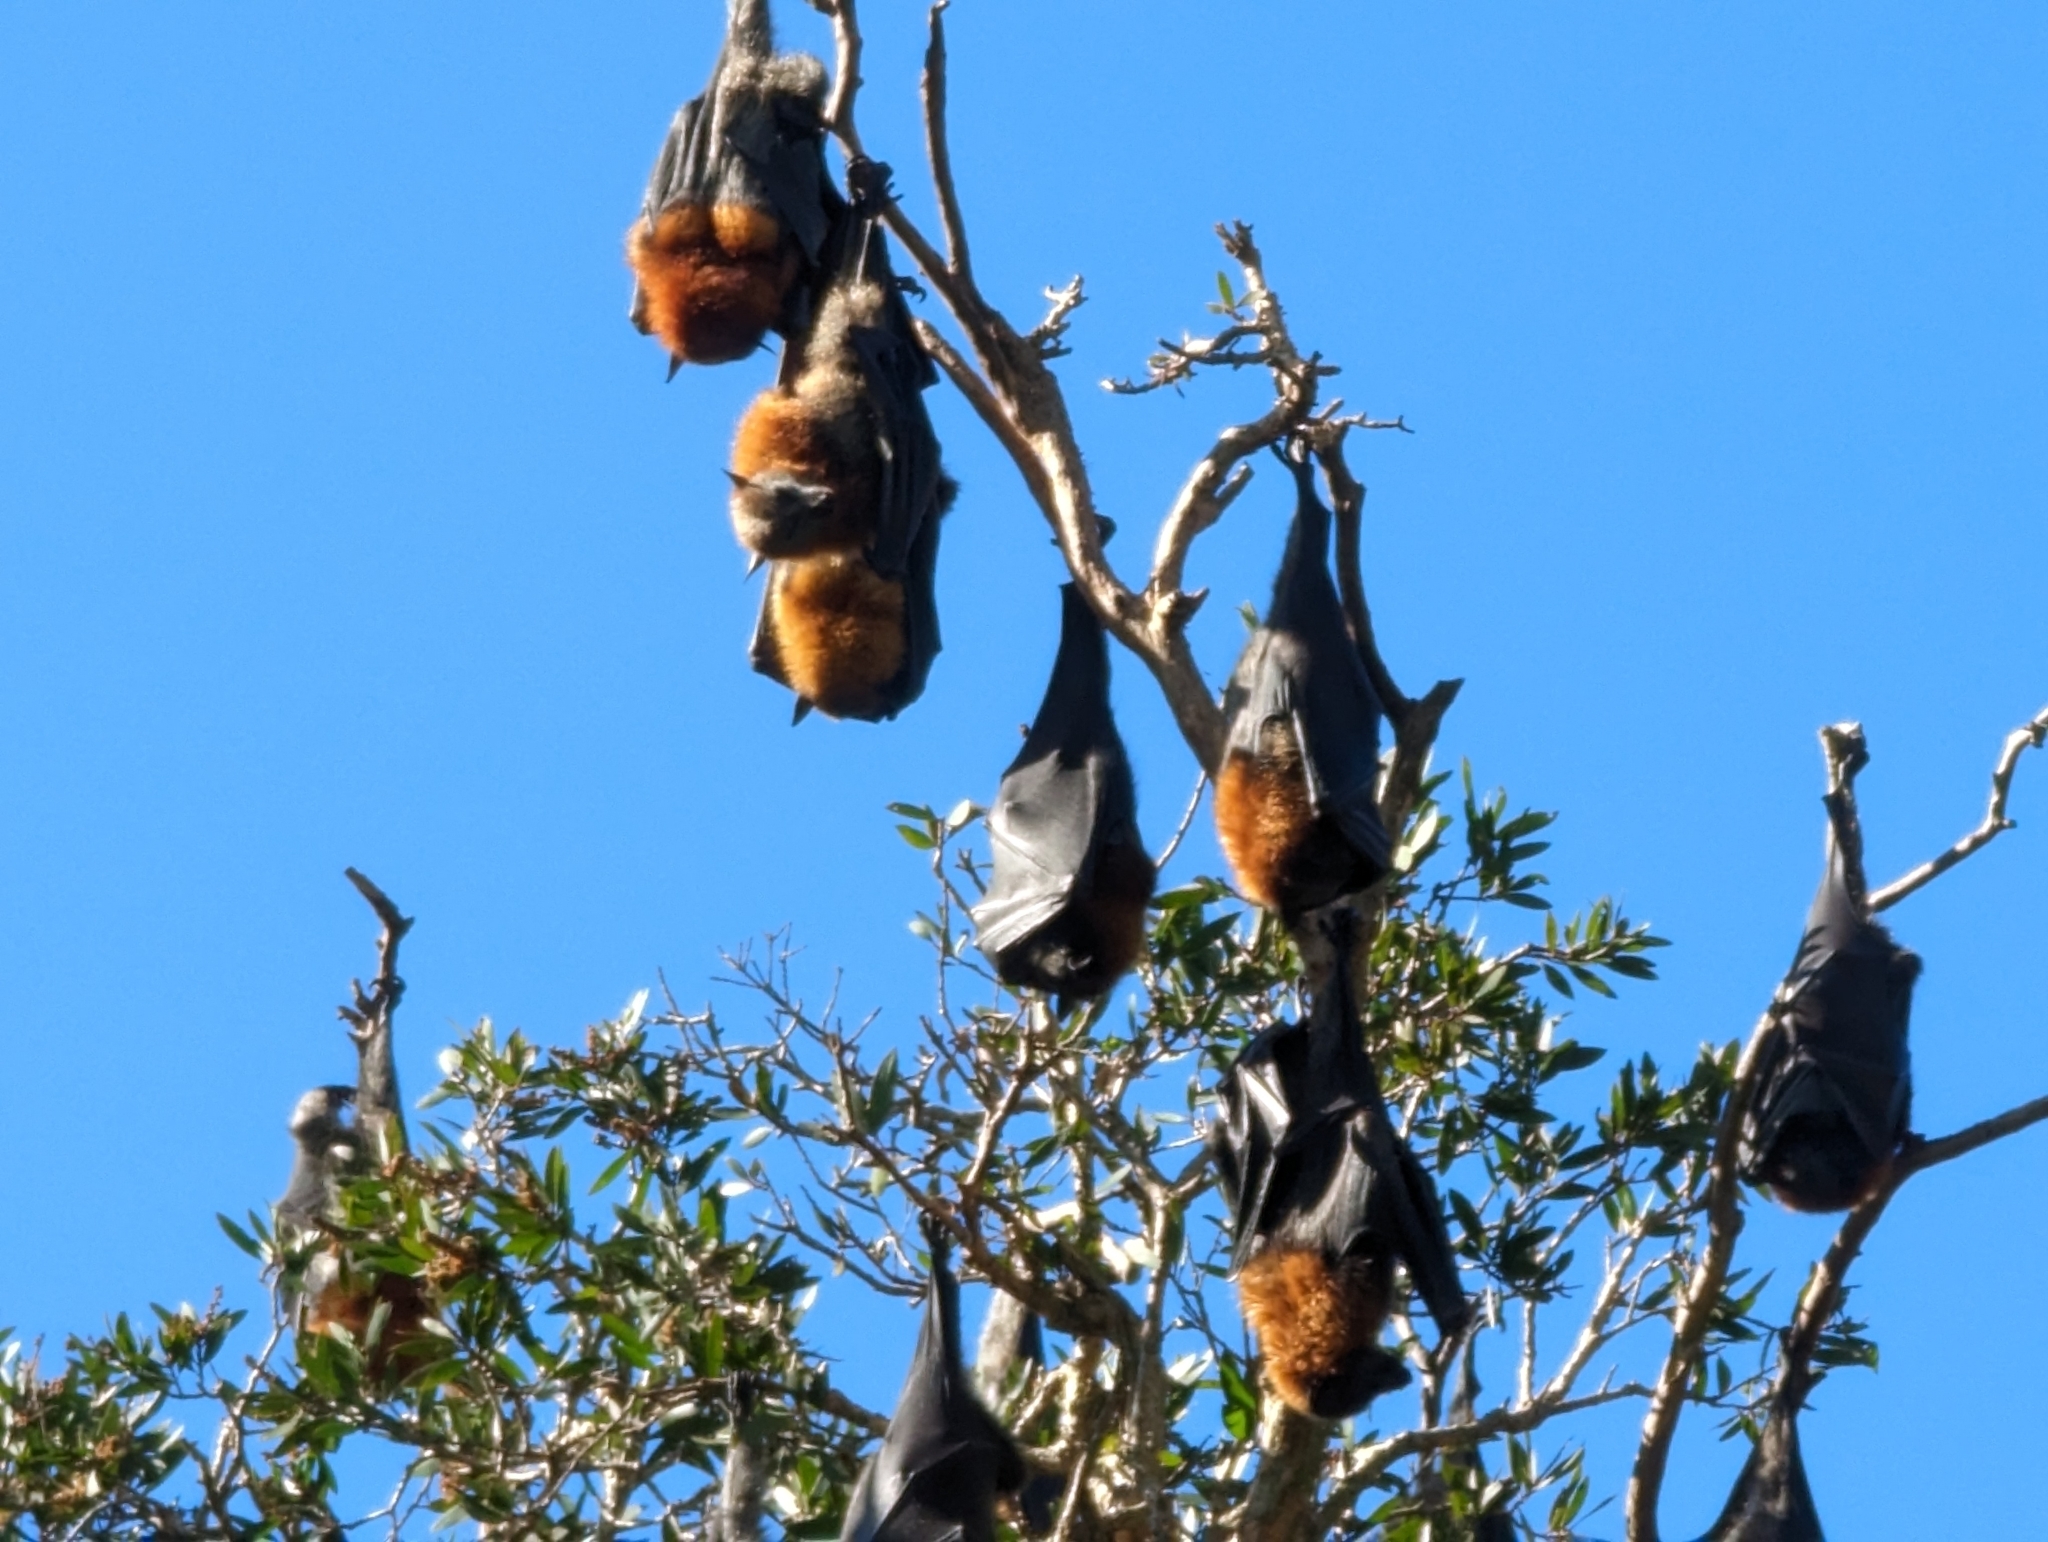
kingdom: Animalia
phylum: Chordata
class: Mammalia
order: Chiroptera
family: Pteropodidae
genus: Pteropus
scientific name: Pteropus poliocephalus
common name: Gray-headed flying fox
